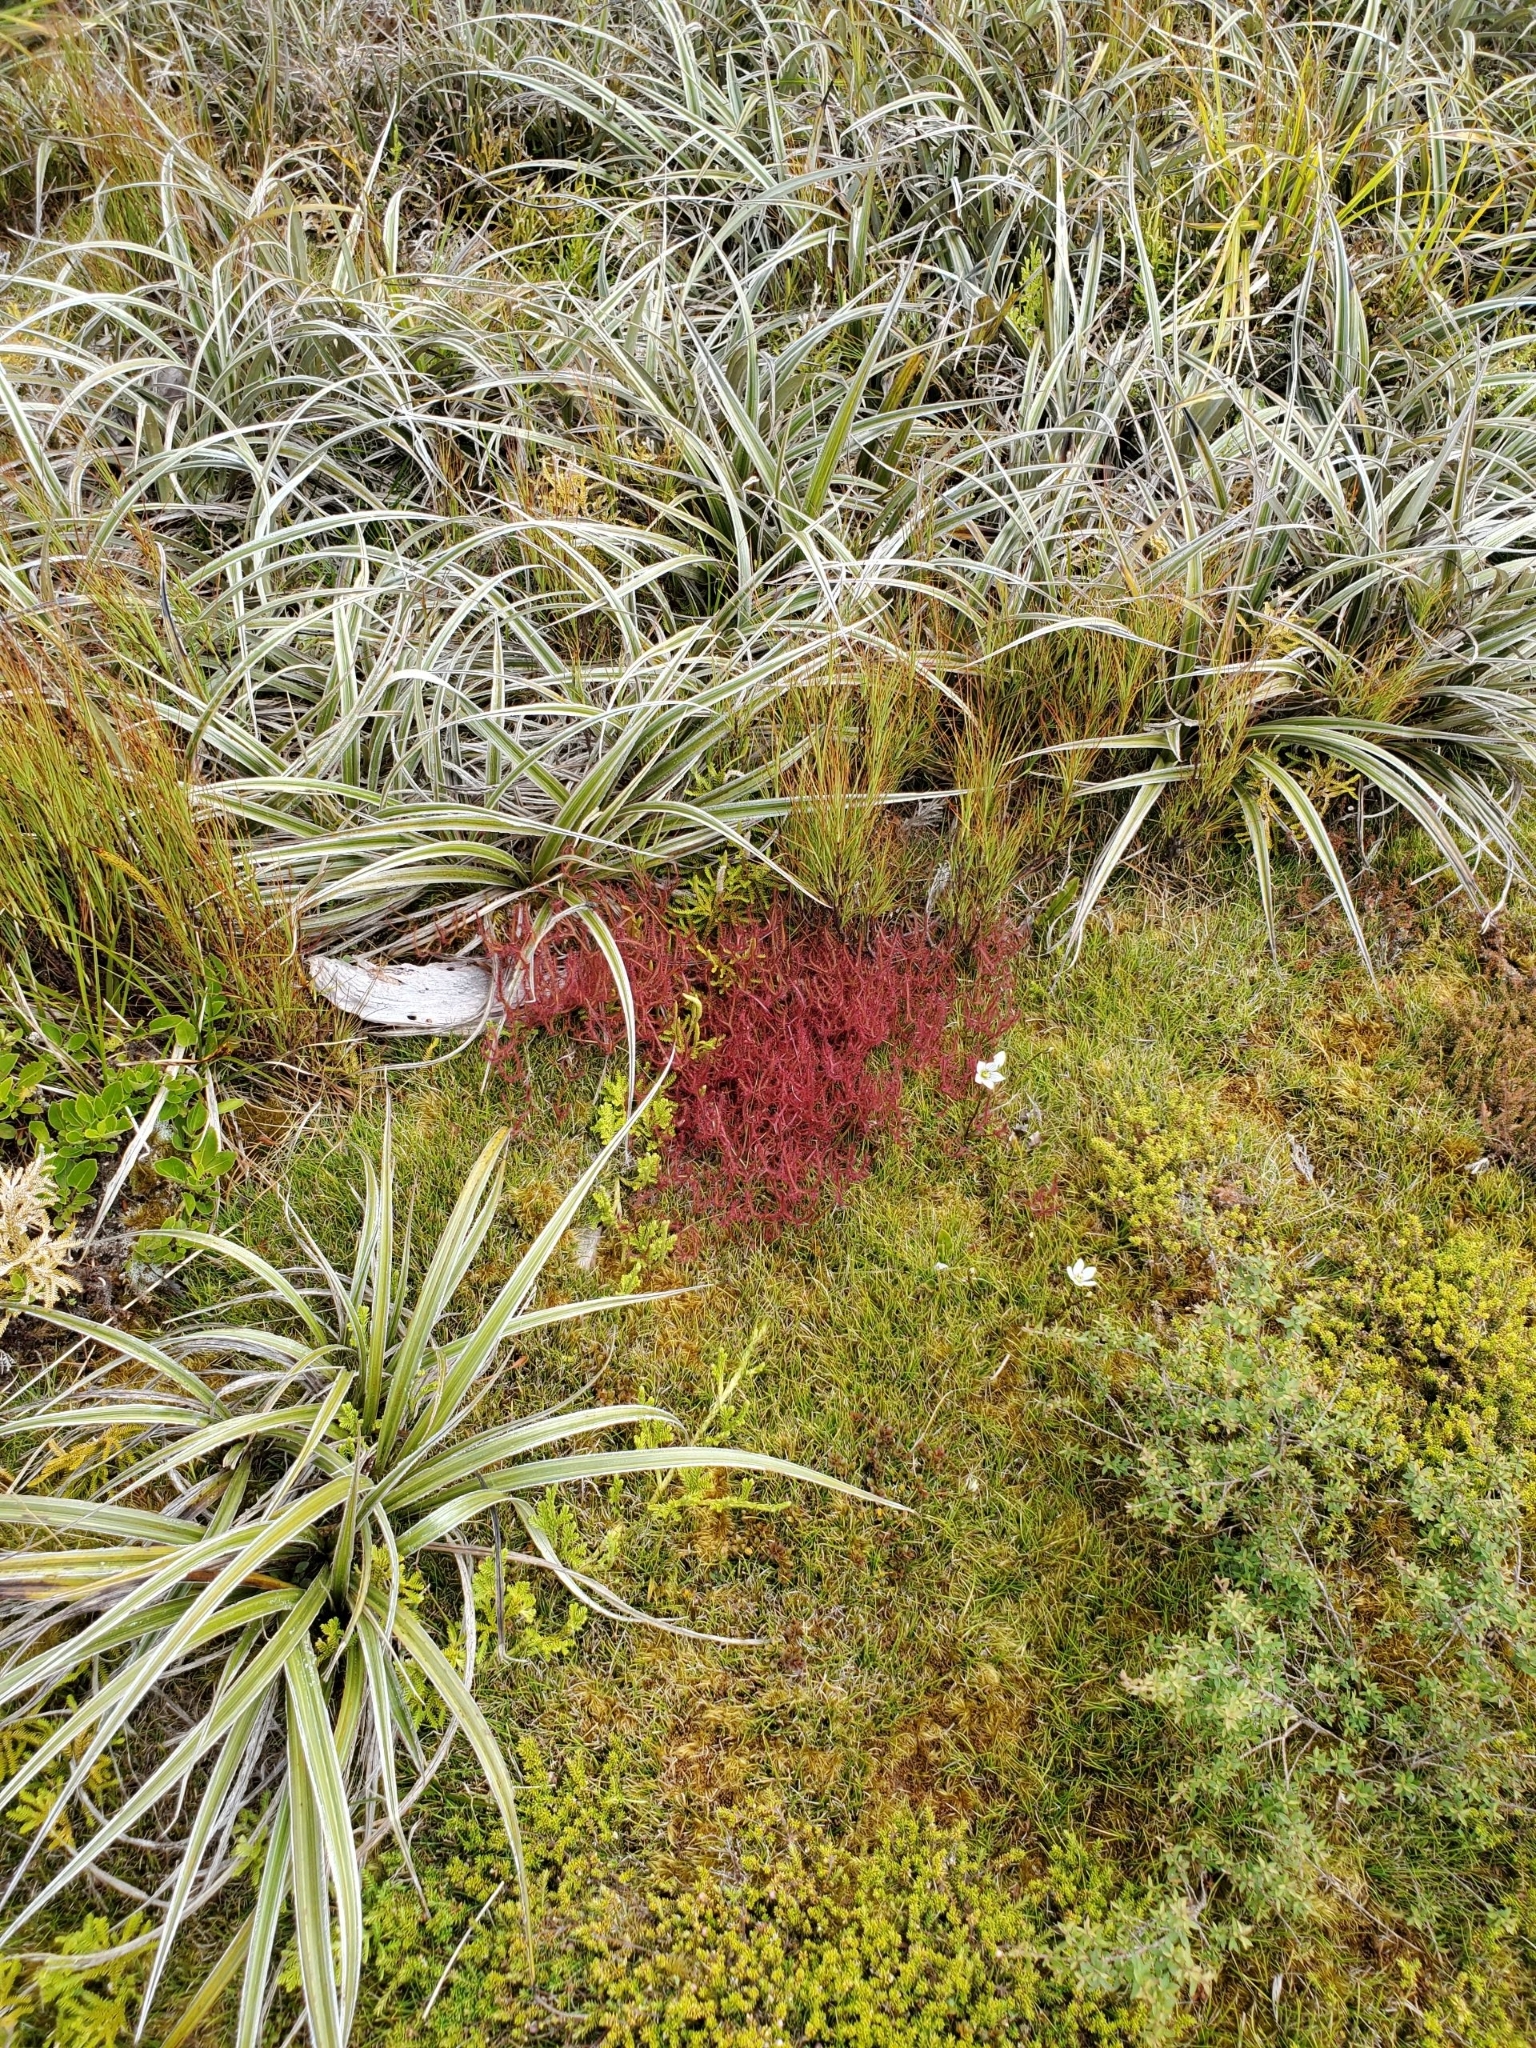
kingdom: Plantae
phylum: Tracheophyta
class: Magnoliopsida
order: Caryophyllales
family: Droseraceae
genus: Drosera
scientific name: Drosera binata
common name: Forked sundew
